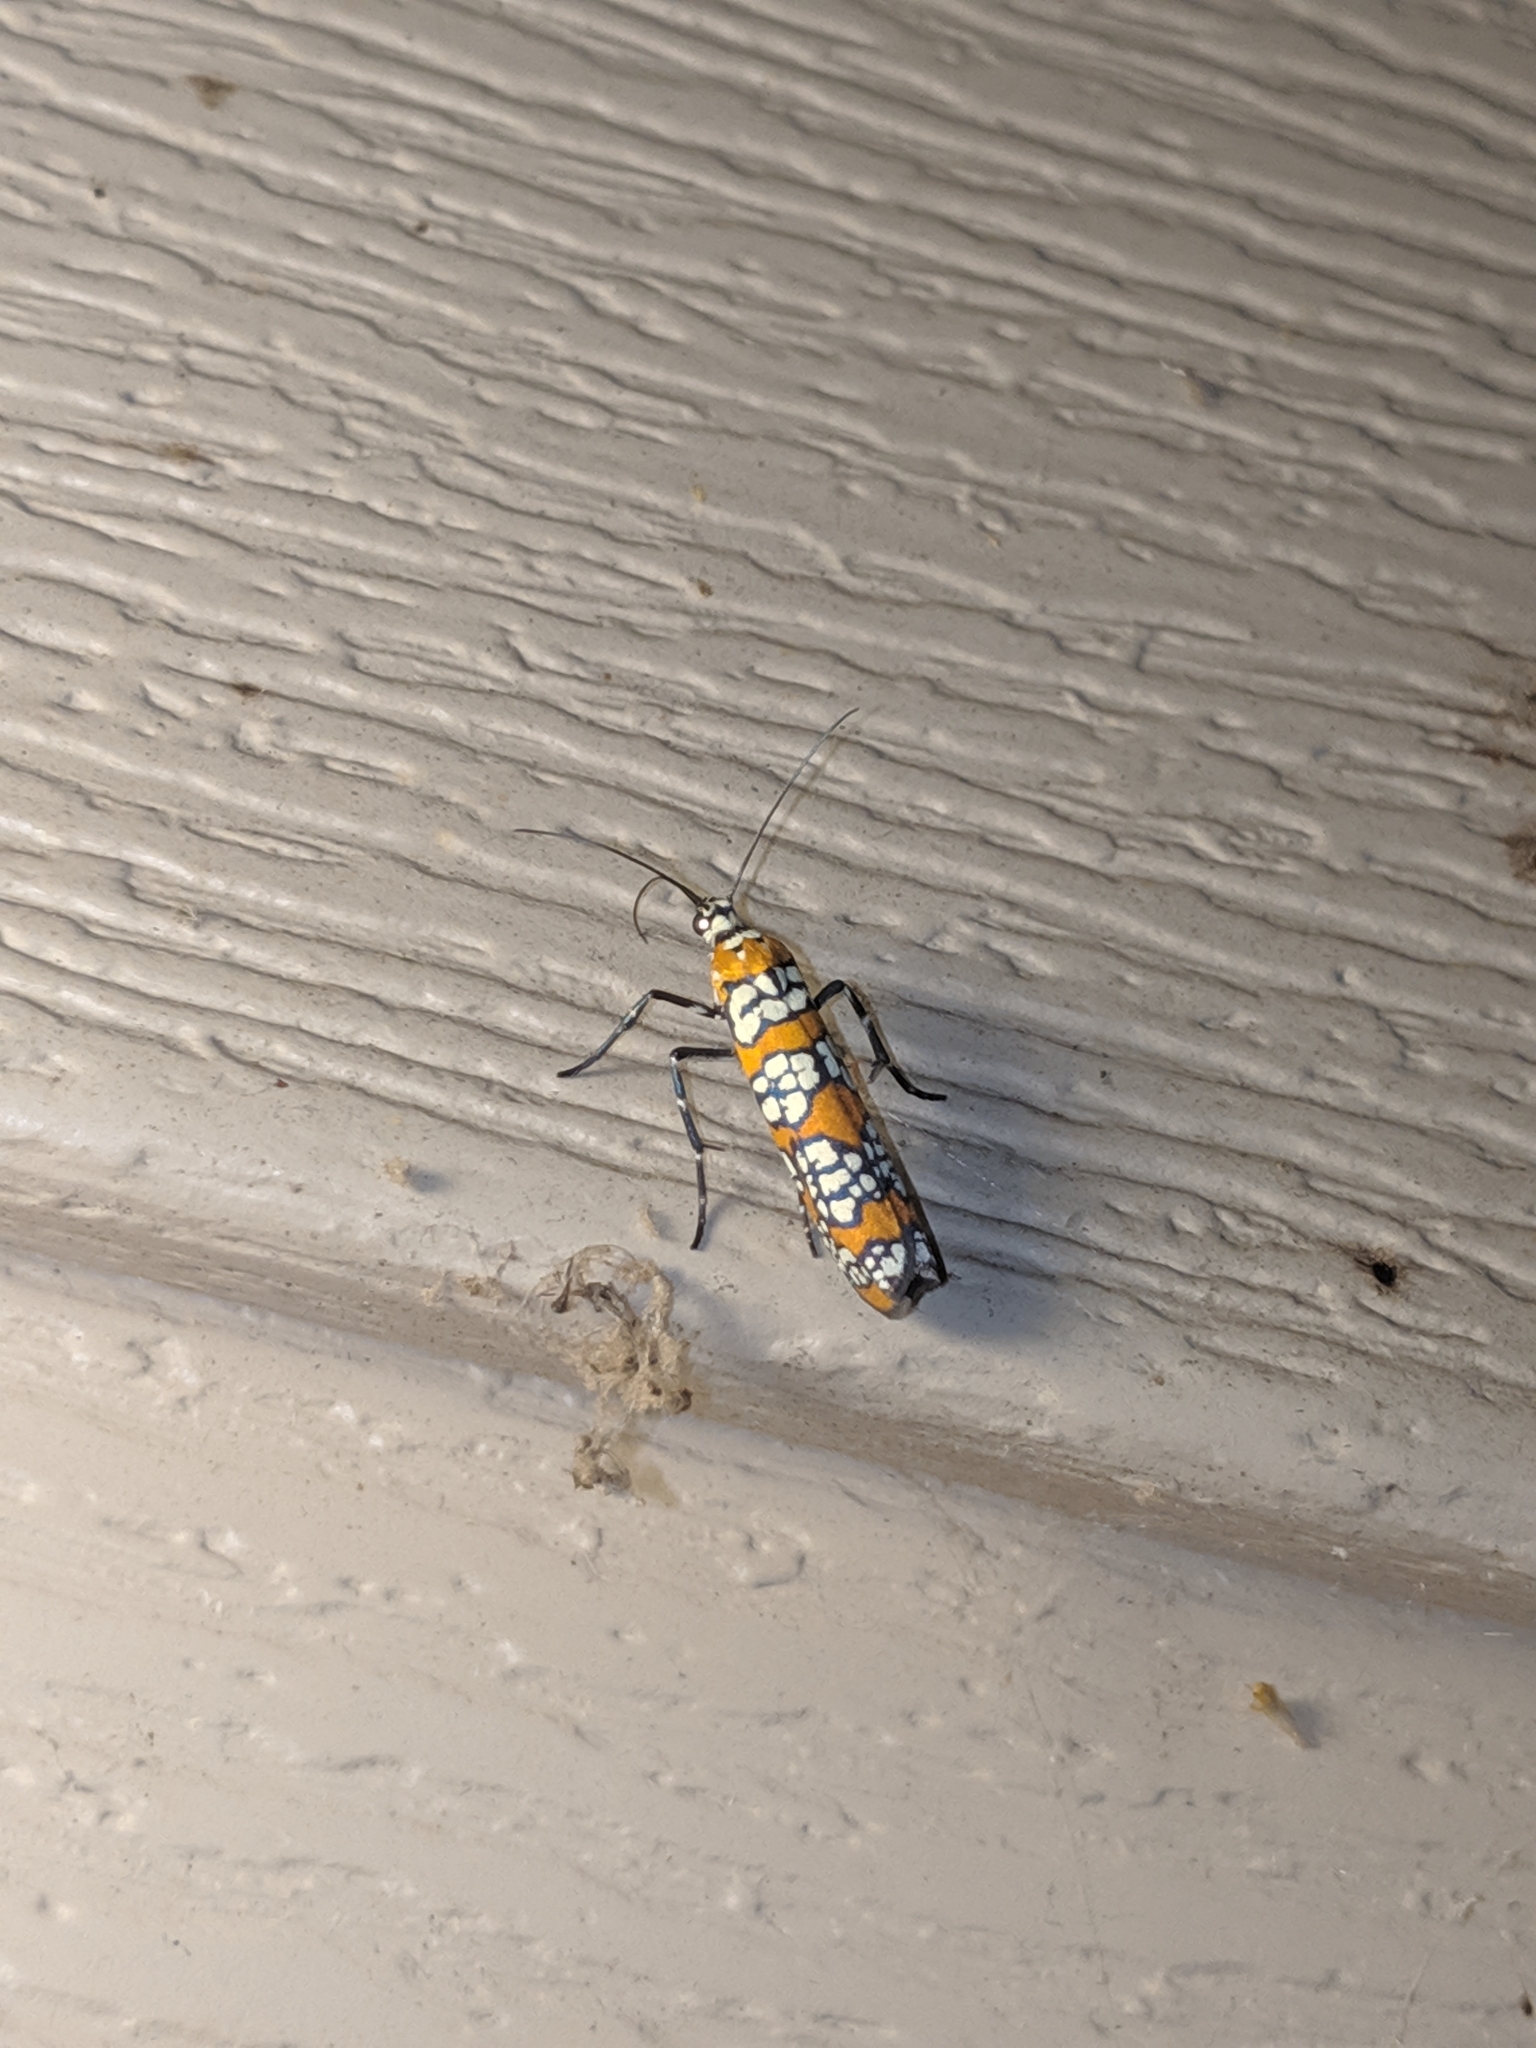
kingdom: Animalia
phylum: Arthropoda
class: Insecta
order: Lepidoptera
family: Attevidae
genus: Atteva
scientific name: Atteva punctella
